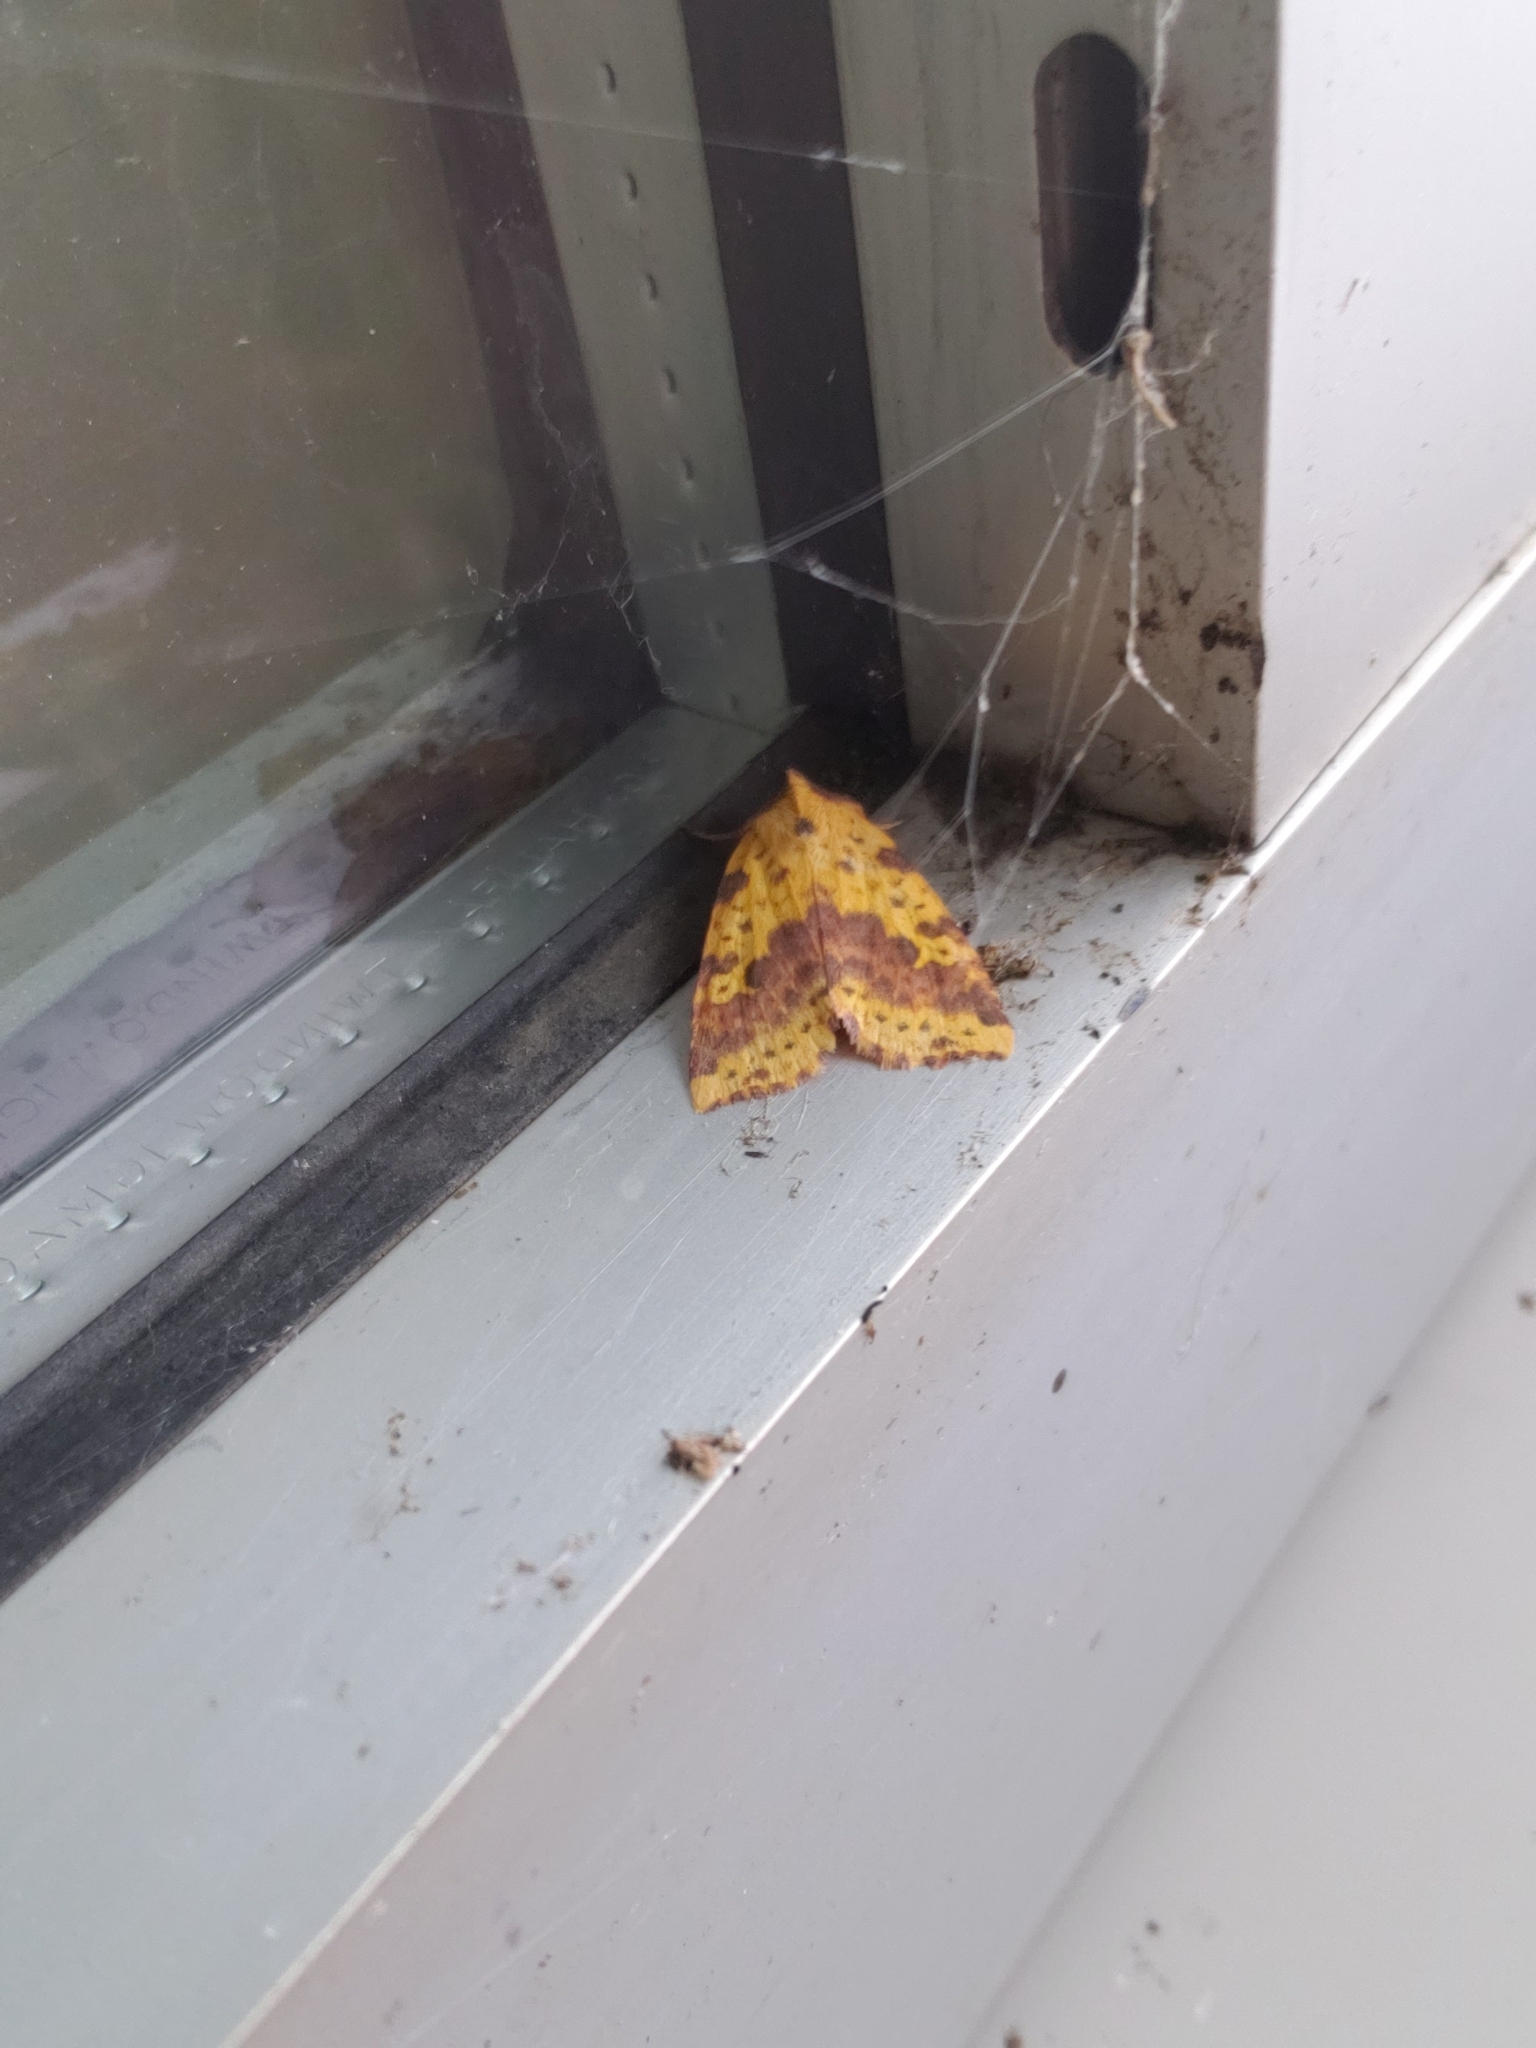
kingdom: Animalia
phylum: Arthropoda
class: Insecta
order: Lepidoptera
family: Noctuidae
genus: Xanthia
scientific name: Xanthia tatago
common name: Pink-banded sallow
